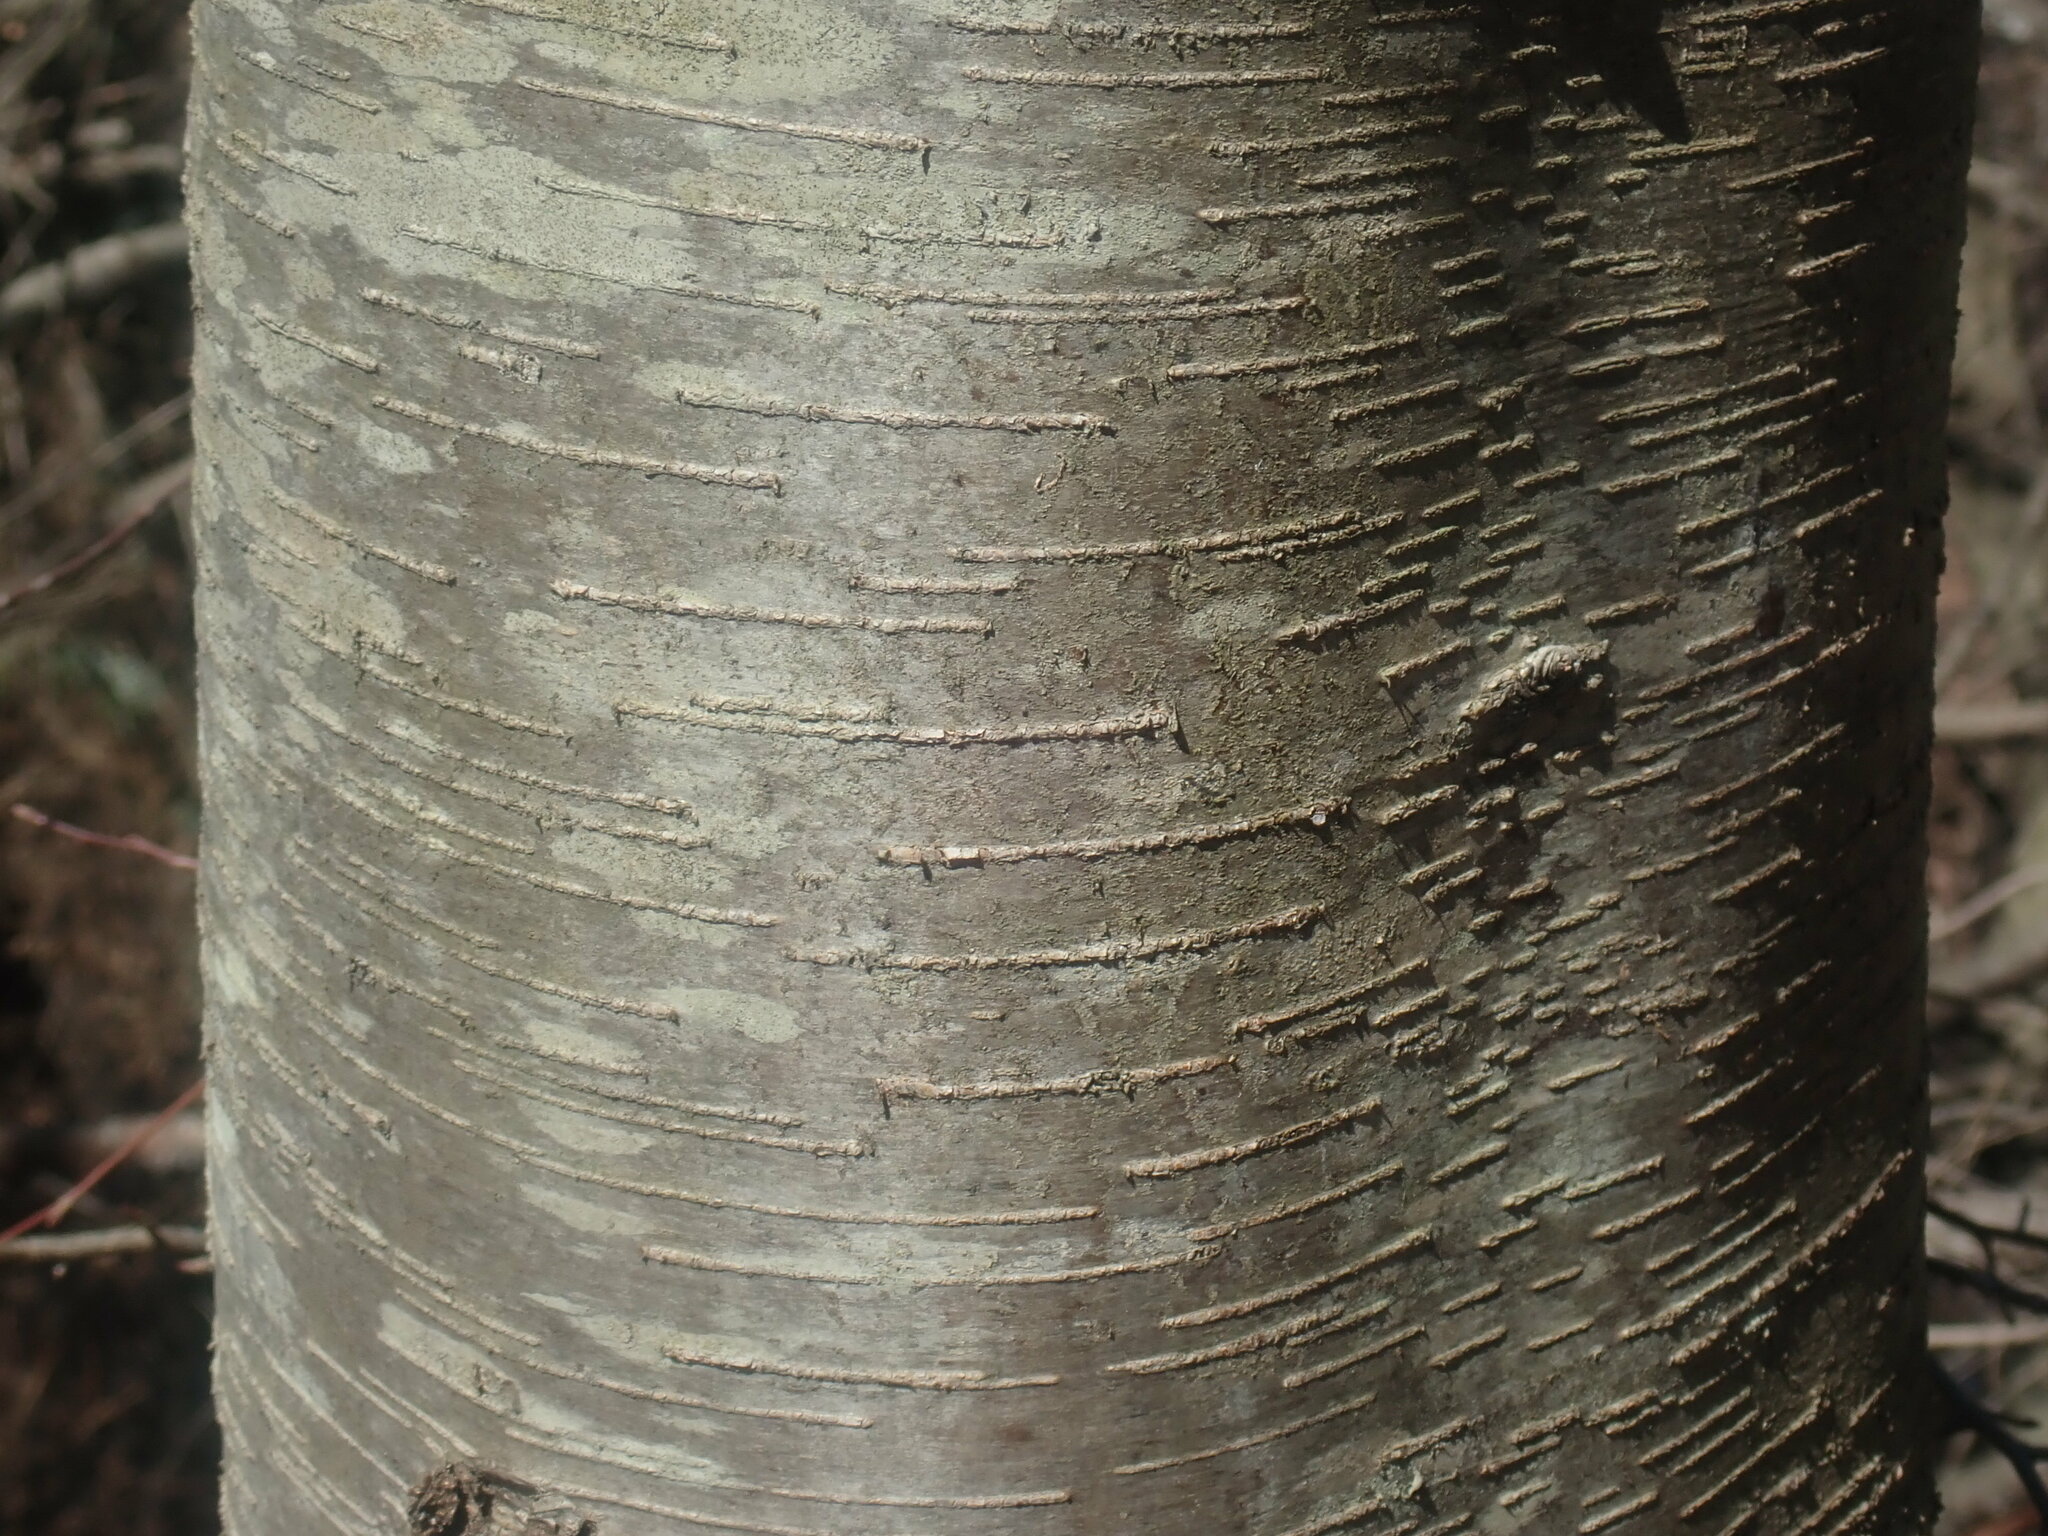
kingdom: Plantae
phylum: Tracheophyta
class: Magnoliopsida
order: Fagales
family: Betulaceae
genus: Betula
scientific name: Betula lenta
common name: Black birch
